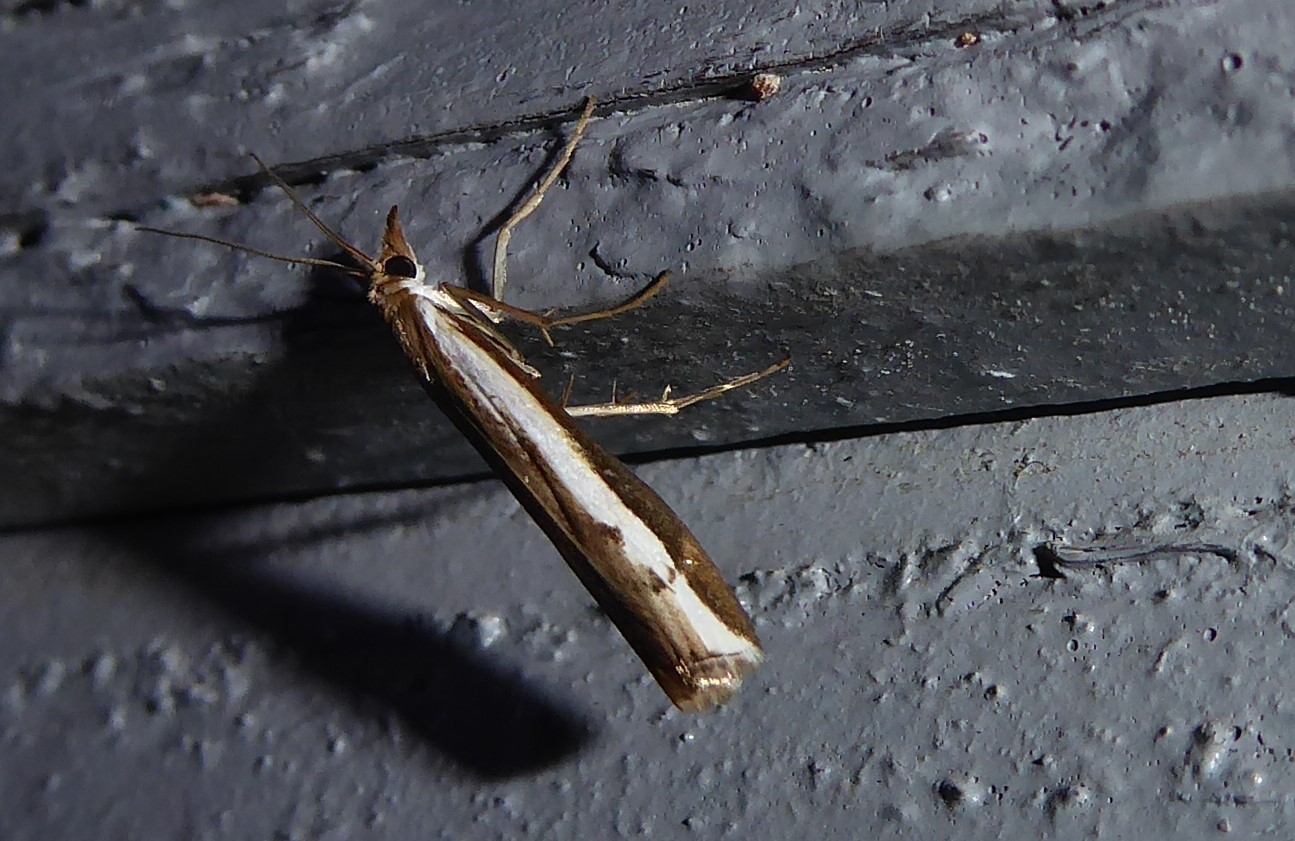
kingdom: Animalia
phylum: Arthropoda
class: Insecta
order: Lepidoptera
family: Crambidae
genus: Orocrambus
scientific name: Orocrambus flexuosellus
